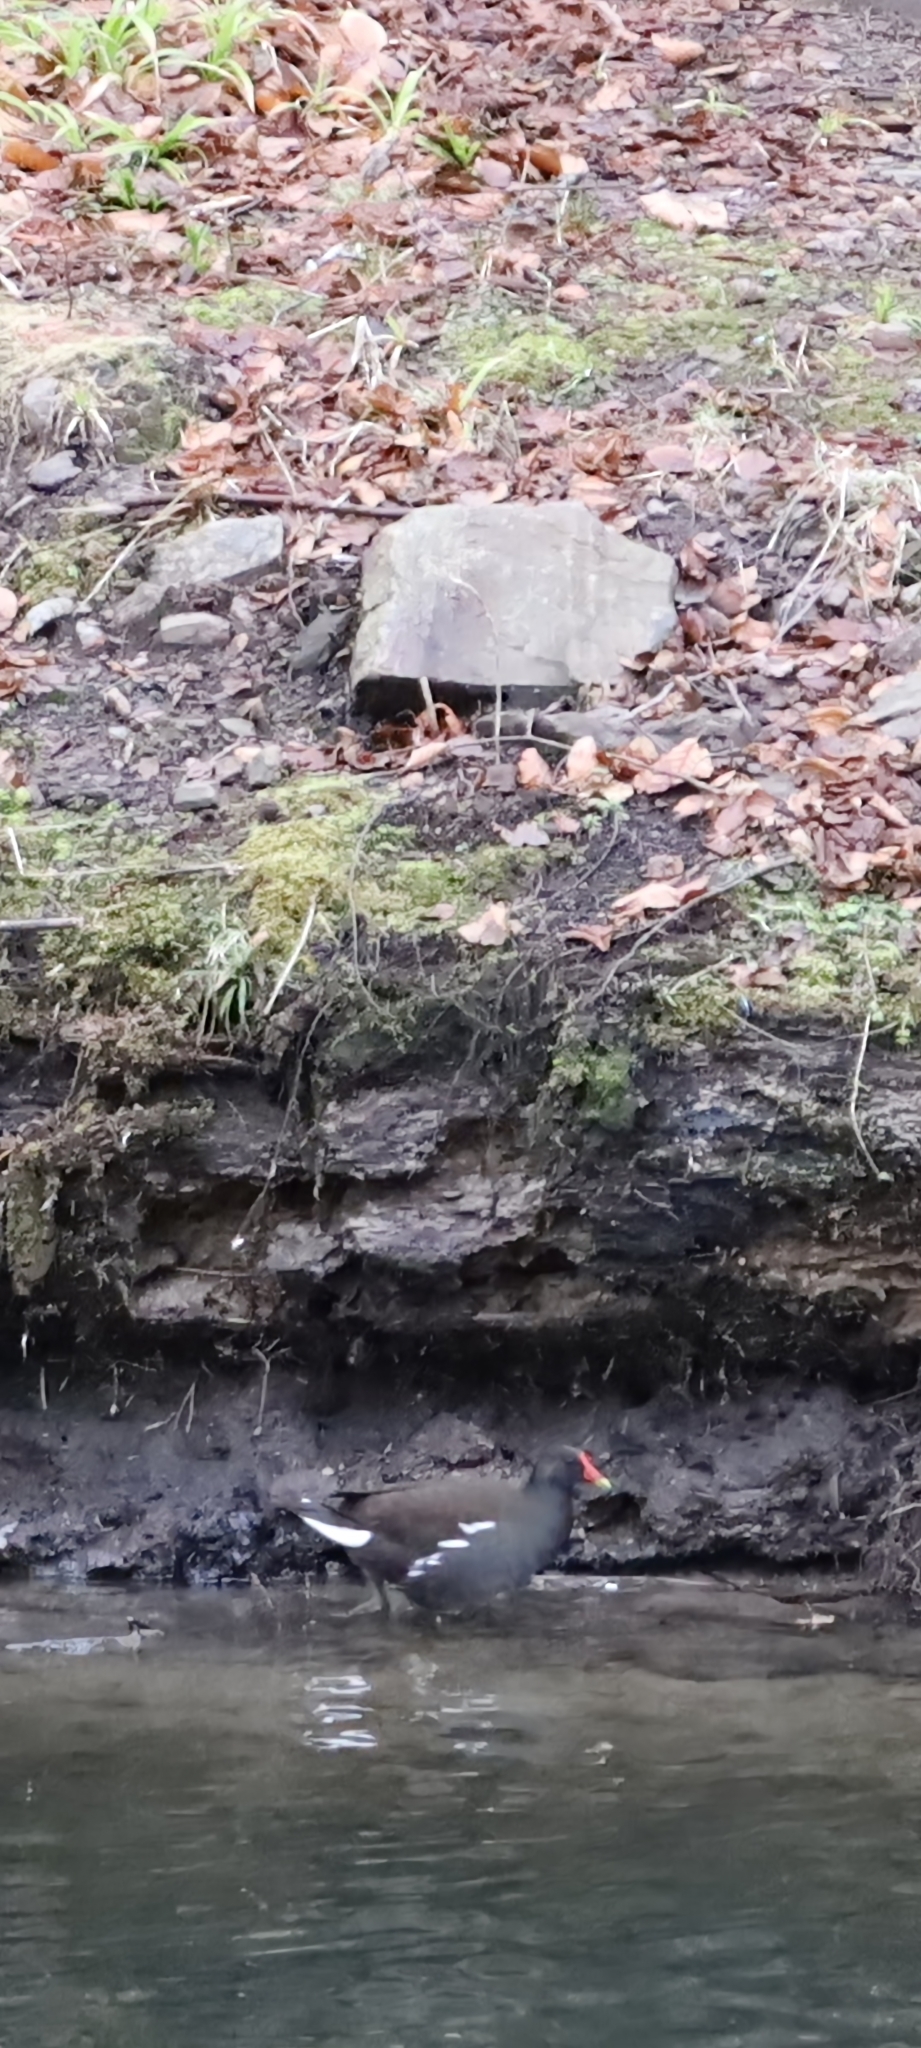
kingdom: Animalia
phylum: Chordata
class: Aves
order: Gruiformes
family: Rallidae
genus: Gallinula
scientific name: Gallinula chloropus
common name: Common moorhen
